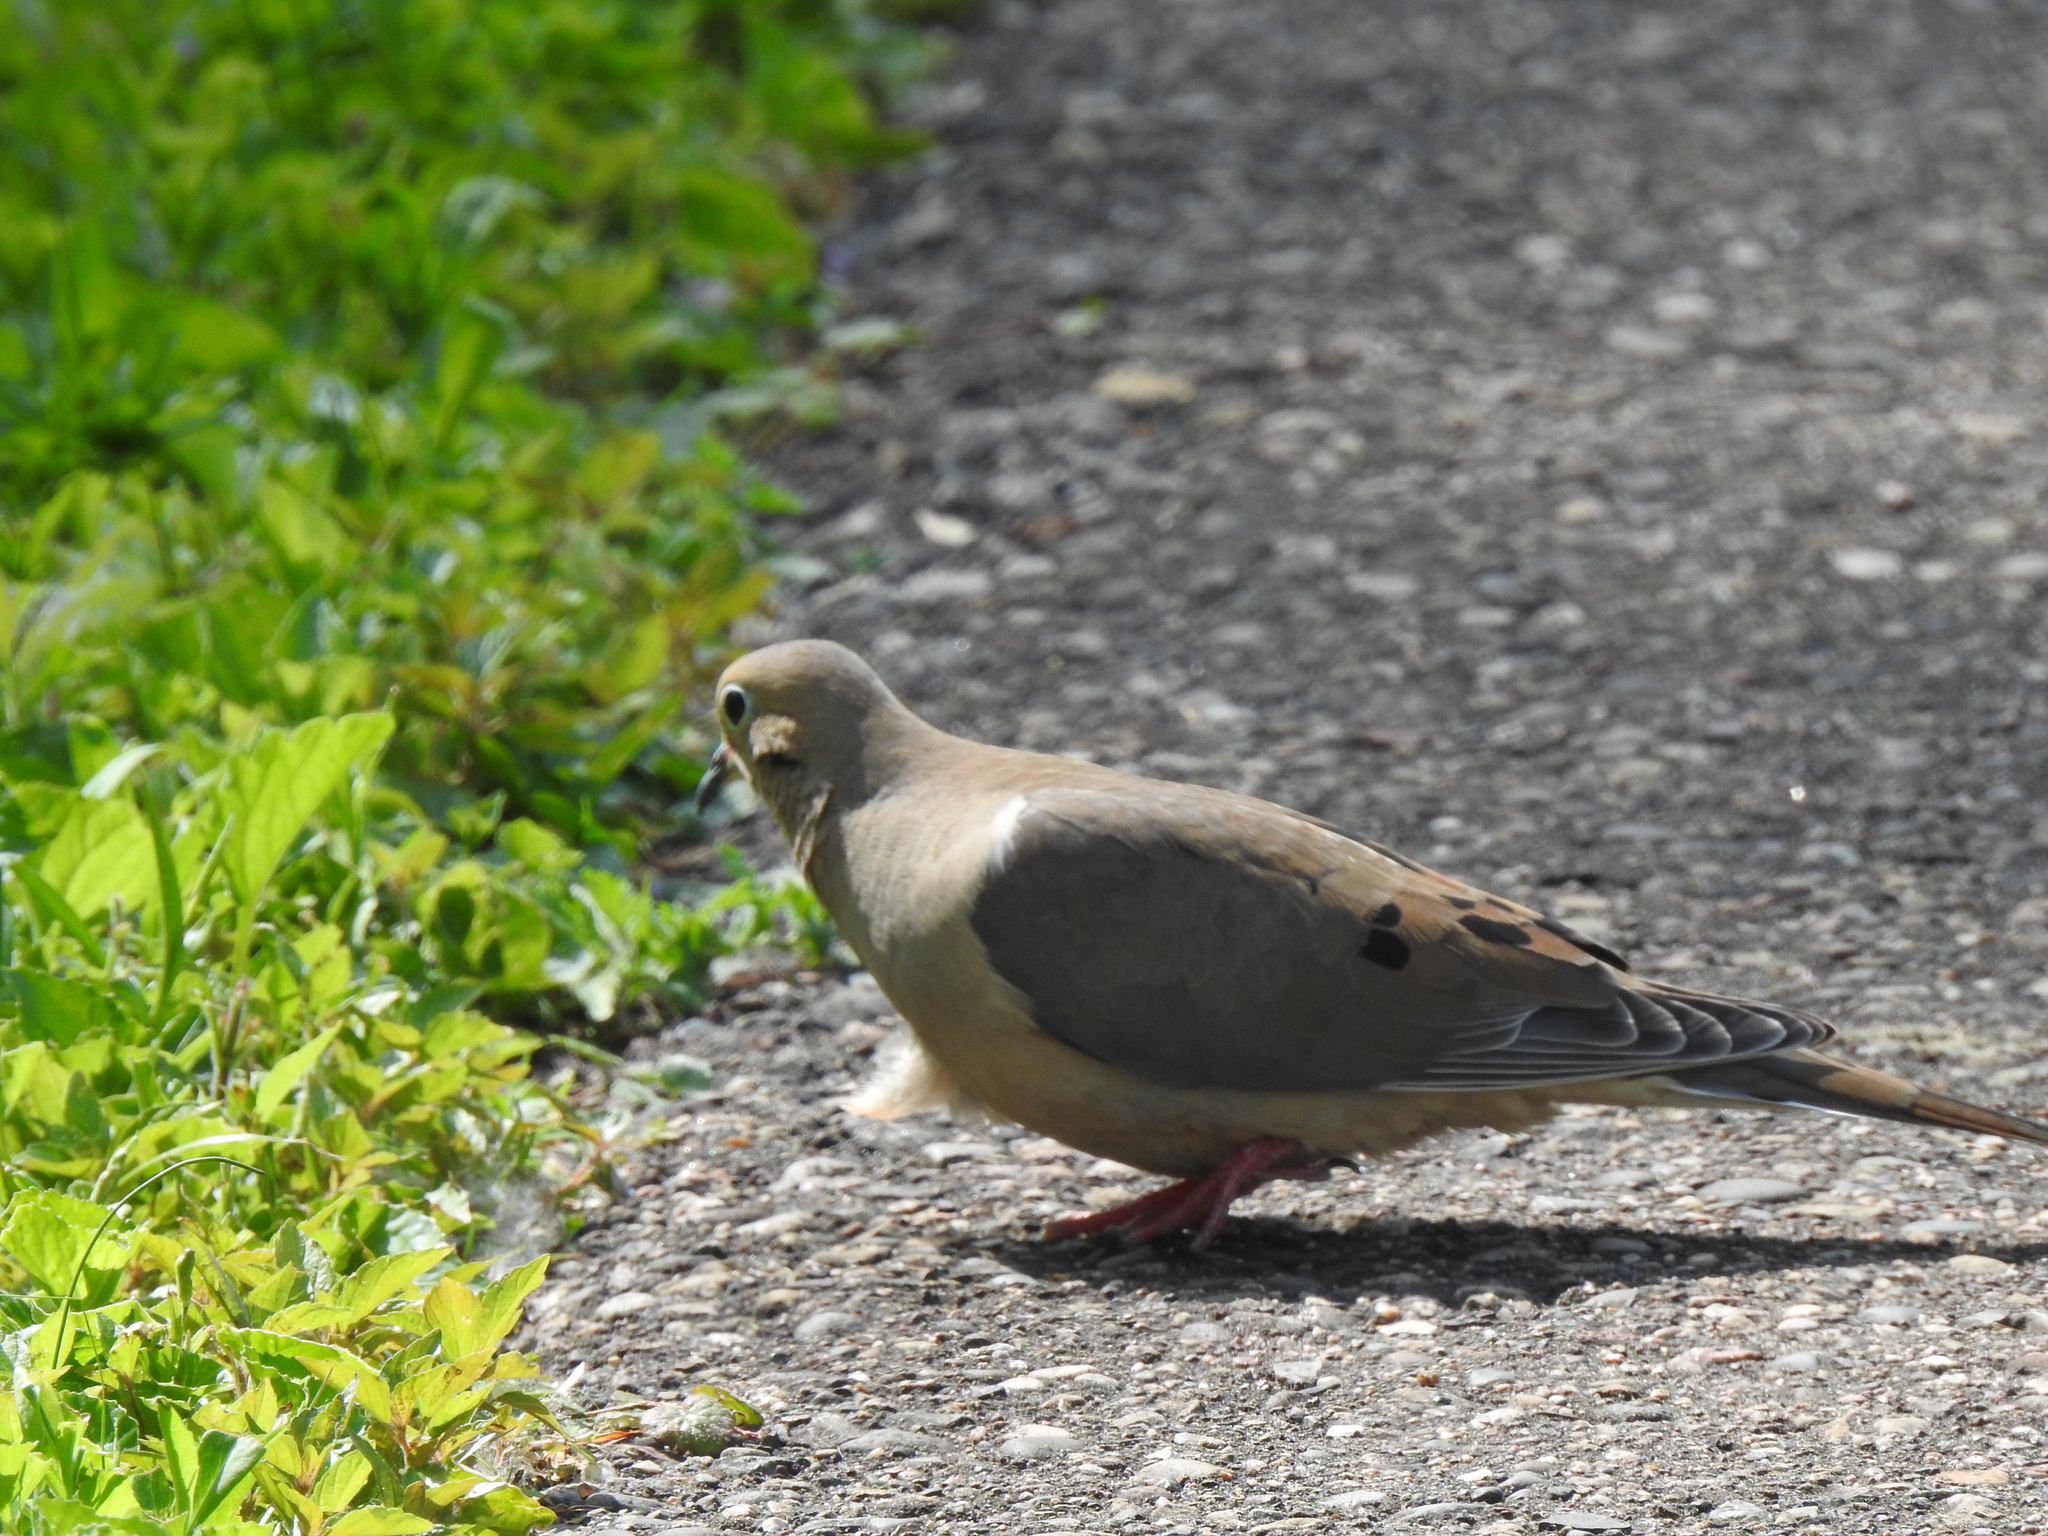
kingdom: Animalia
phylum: Chordata
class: Aves
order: Columbiformes
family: Columbidae
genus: Zenaida
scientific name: Zenaida macroura
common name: Mourning dove
